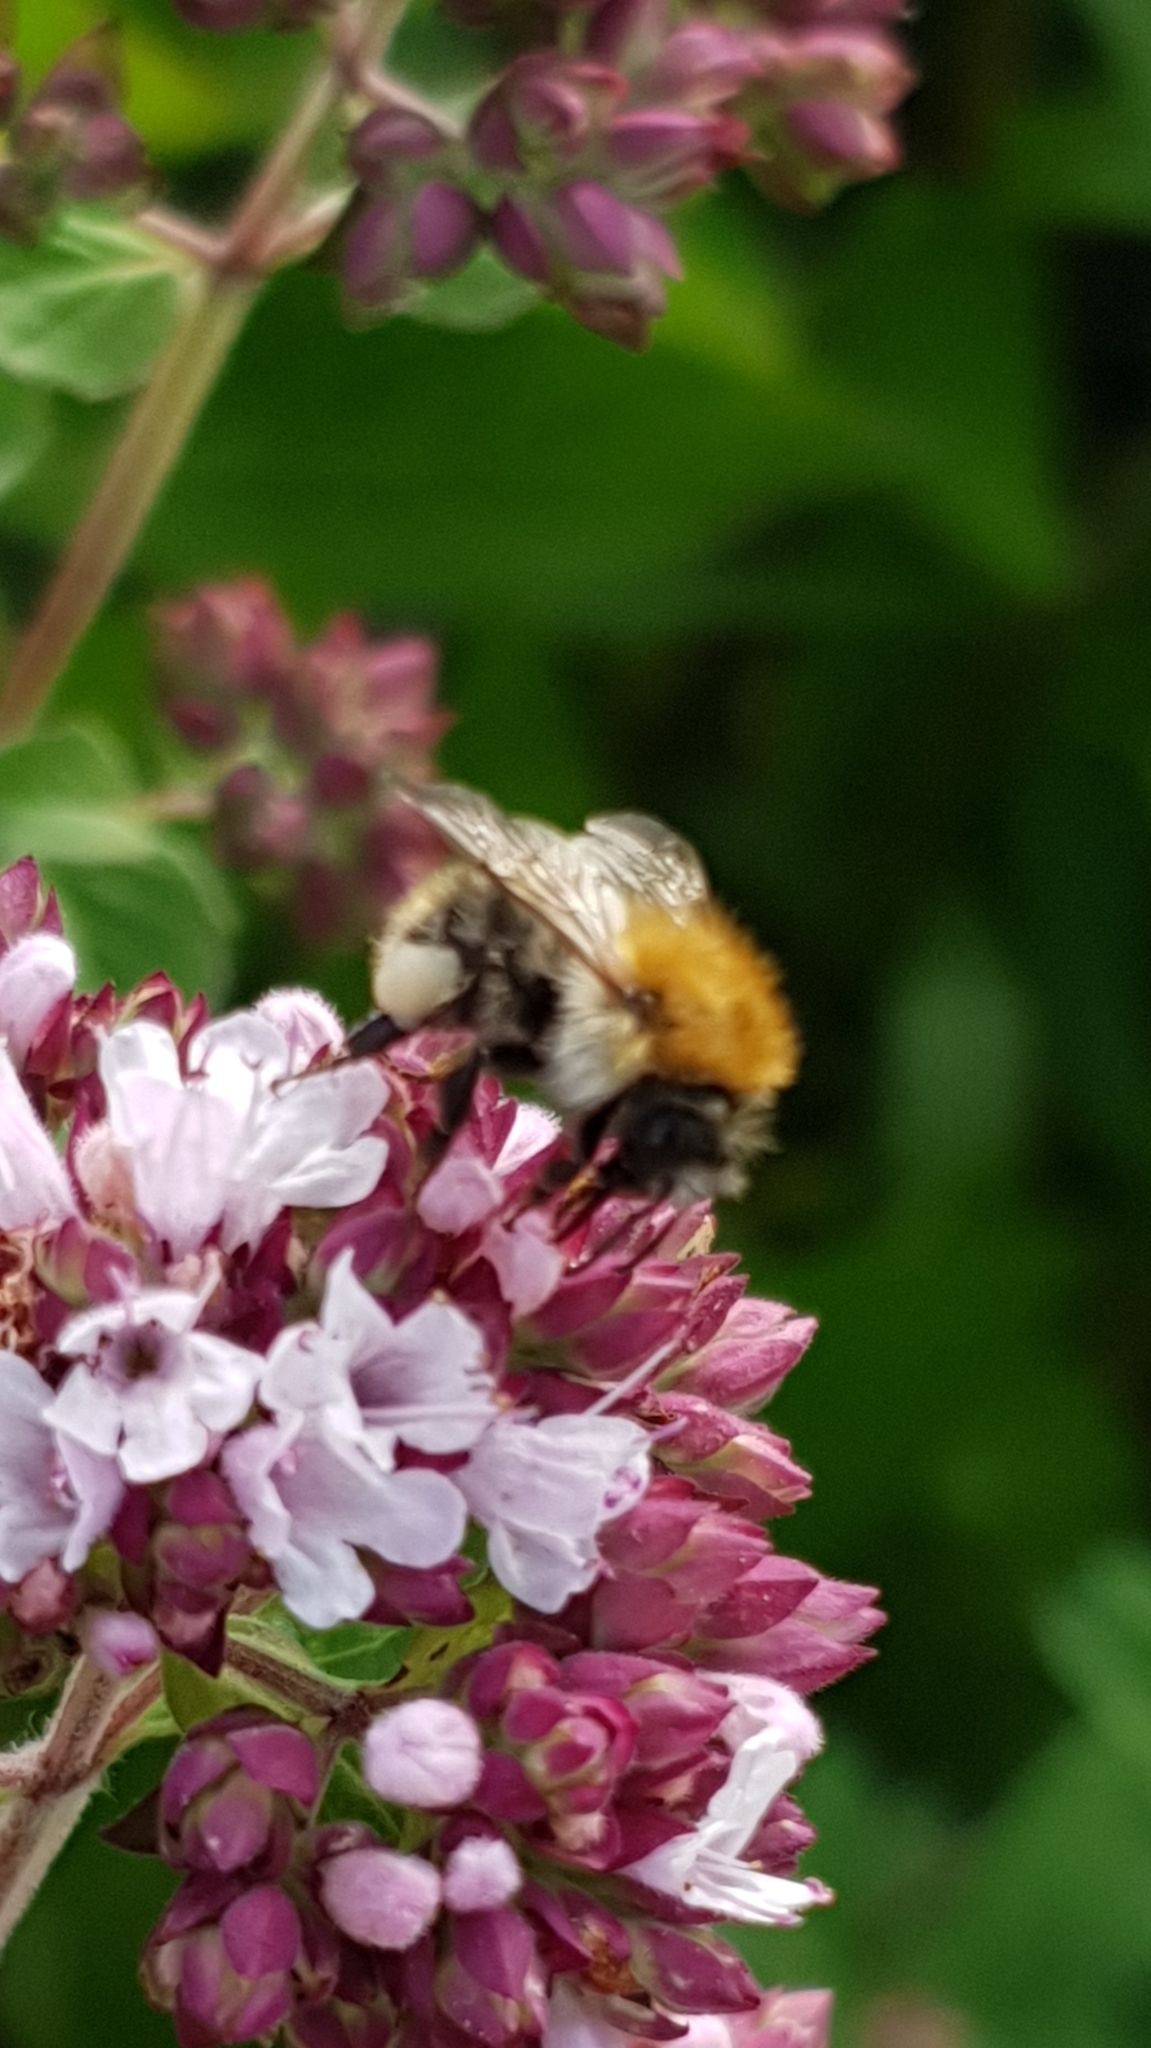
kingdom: Animalia
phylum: Arthropoda
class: Insecta
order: Hymenoptera
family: Apidae
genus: Bombus
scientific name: Bombus pascuorum
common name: Common carder bee
